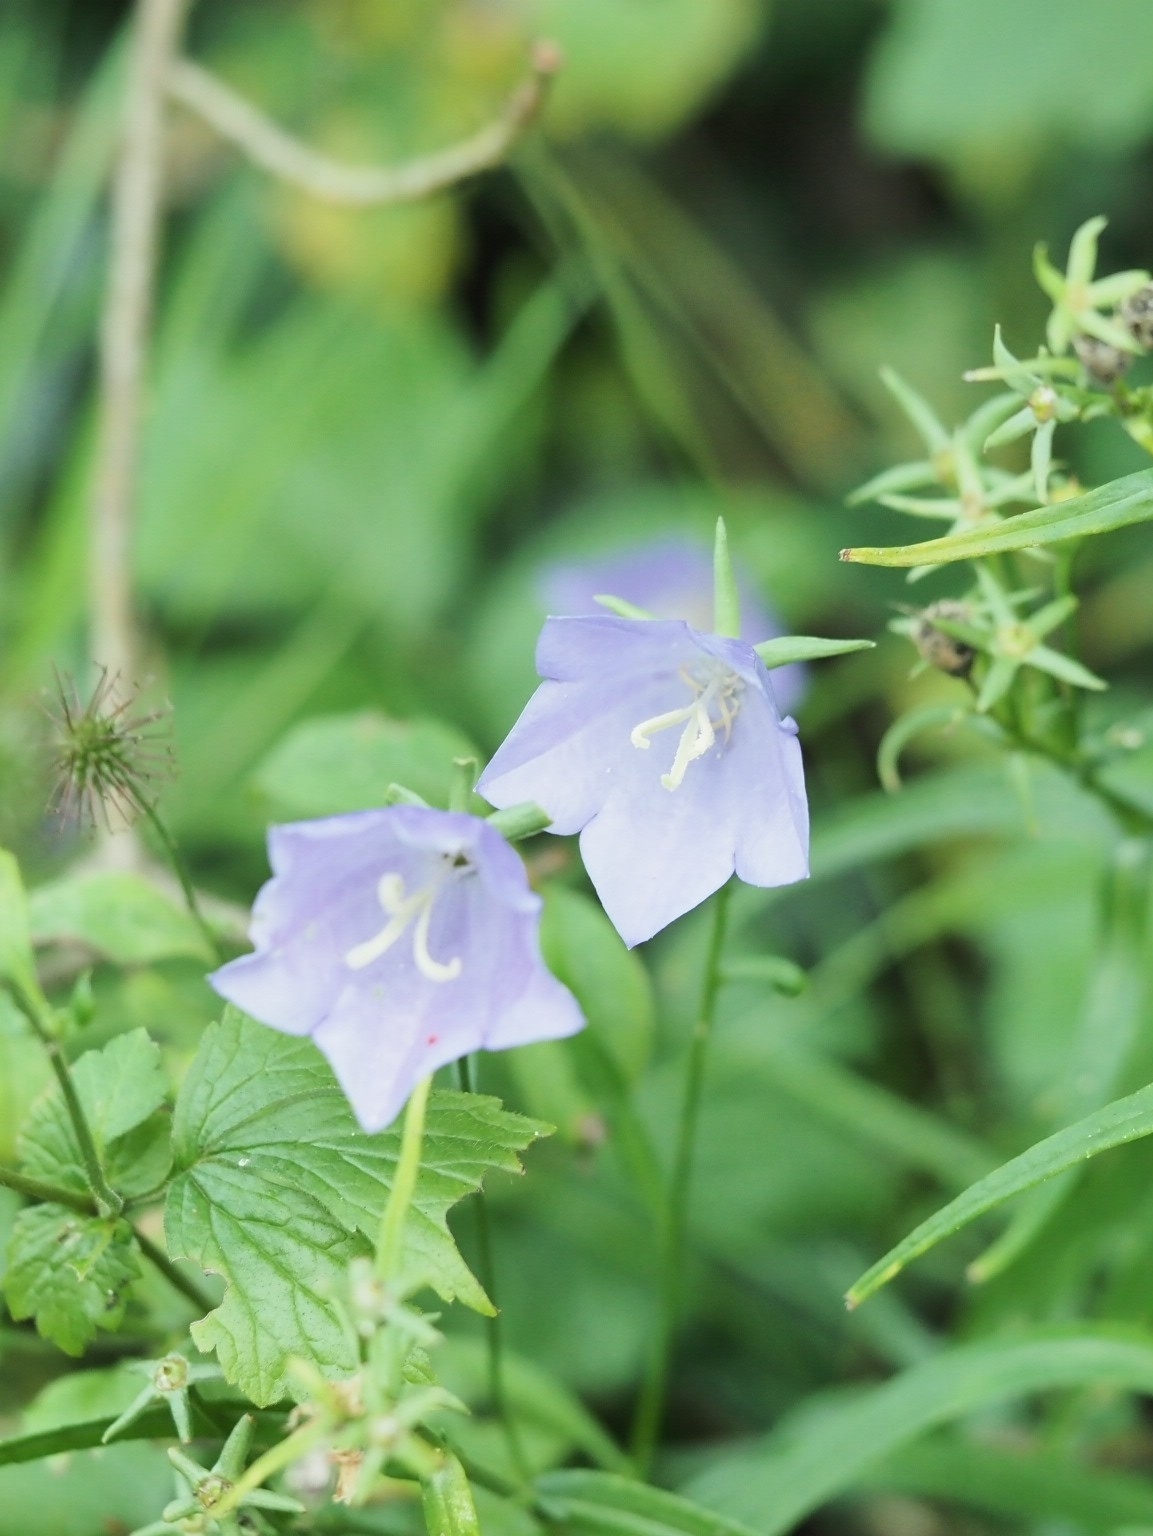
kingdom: Plantae
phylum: Tracheophyta
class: Magnoliopsida
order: Asterales
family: Campanulaceae
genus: Campanula
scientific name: Campanula persicifolia
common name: Peach-leaved bellflower
